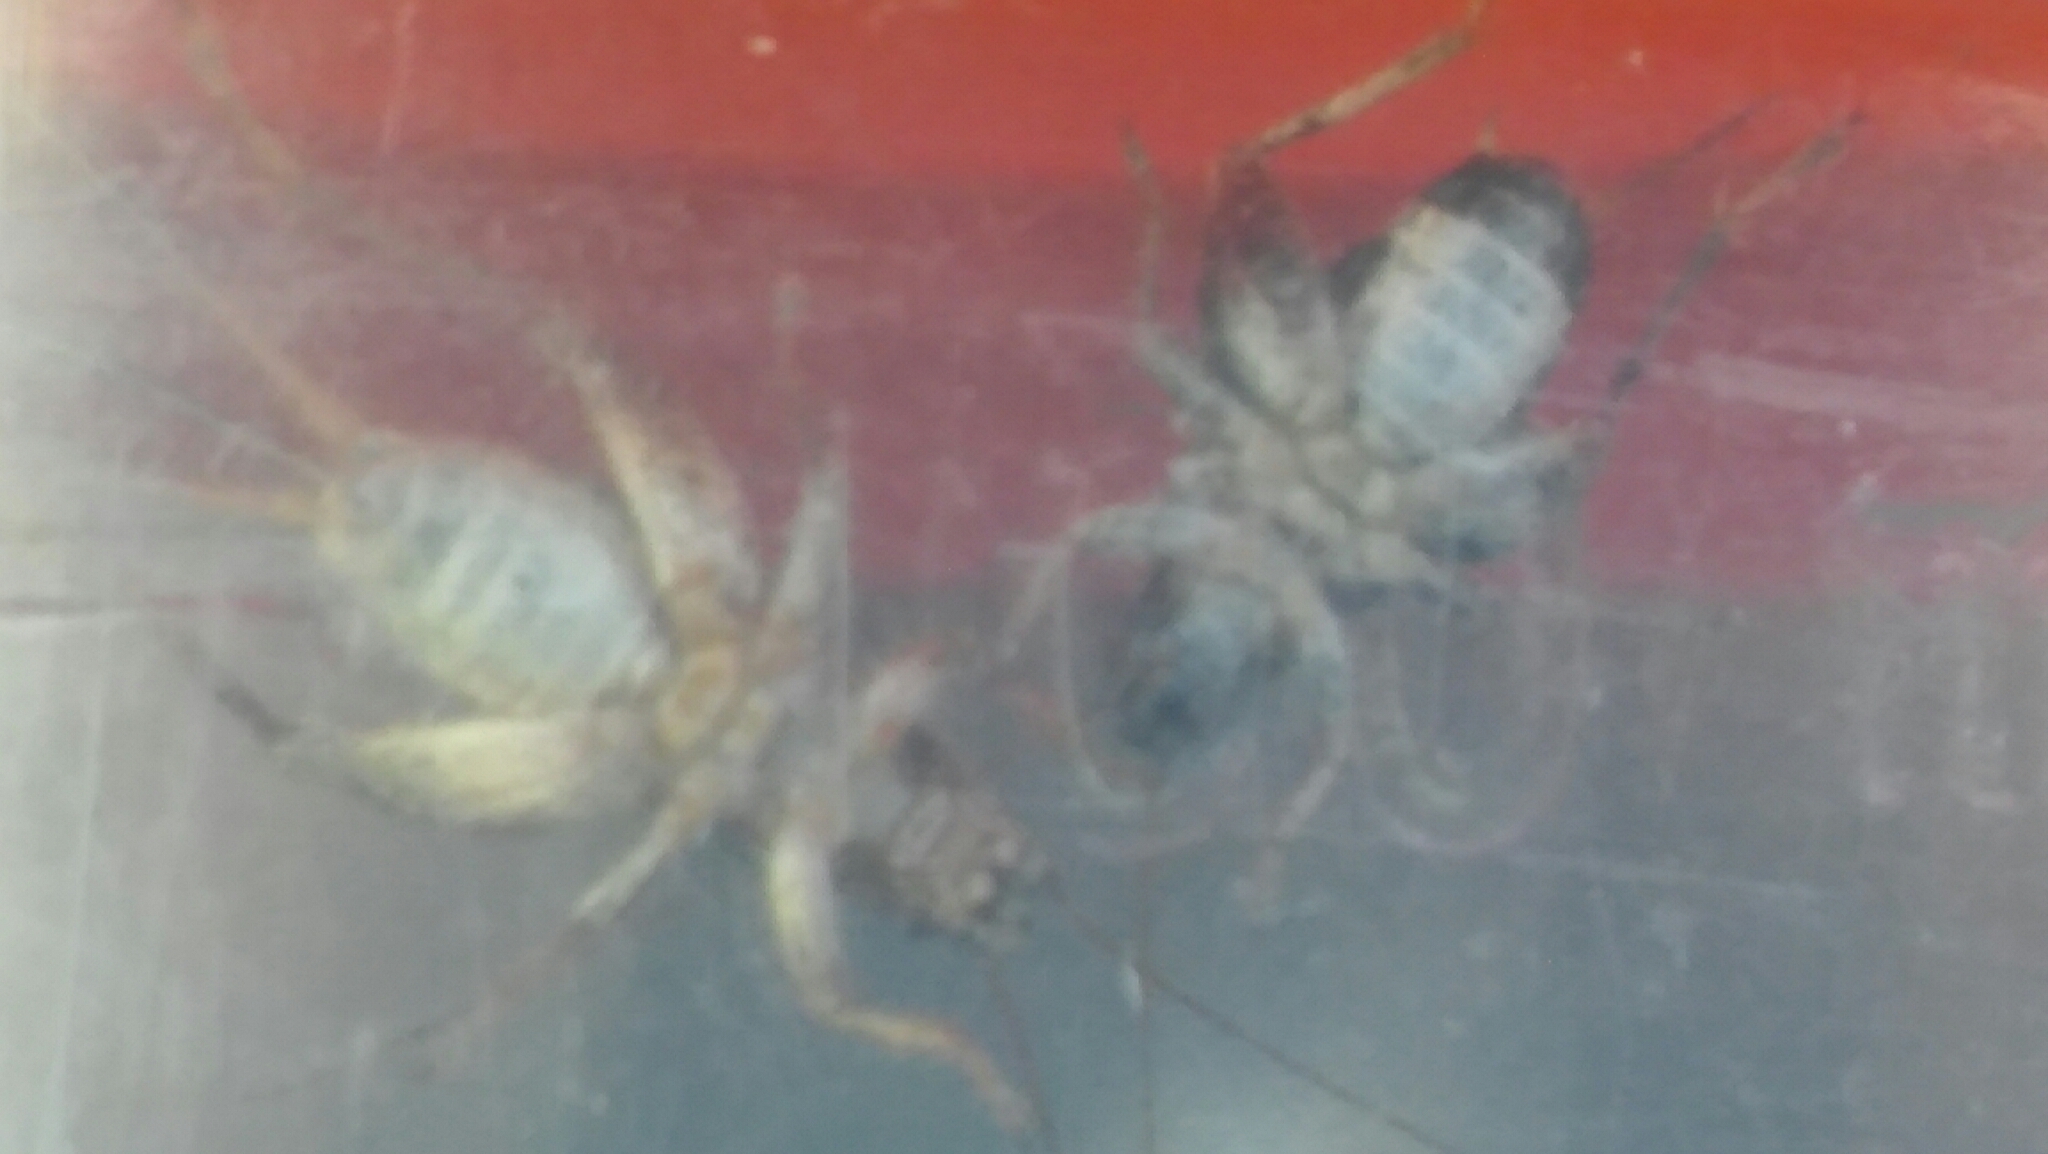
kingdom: Animalia
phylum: Arthropoda
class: Insecta
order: Orthoptera
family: Mogoplistidae
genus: Ornebius
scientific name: Ornebius alatus
